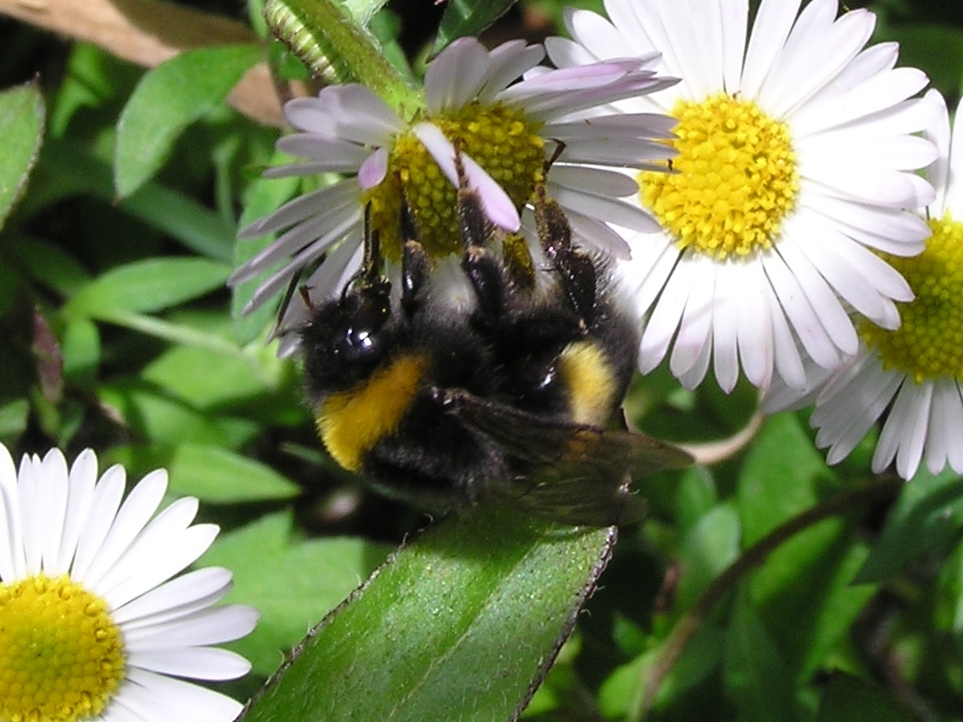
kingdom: Animalia
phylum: Arthropoda
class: Insecta
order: Hymenoptera
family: Apidae
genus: Bombus
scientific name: Bombus terrestris
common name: Buff-tailed bumblebee
